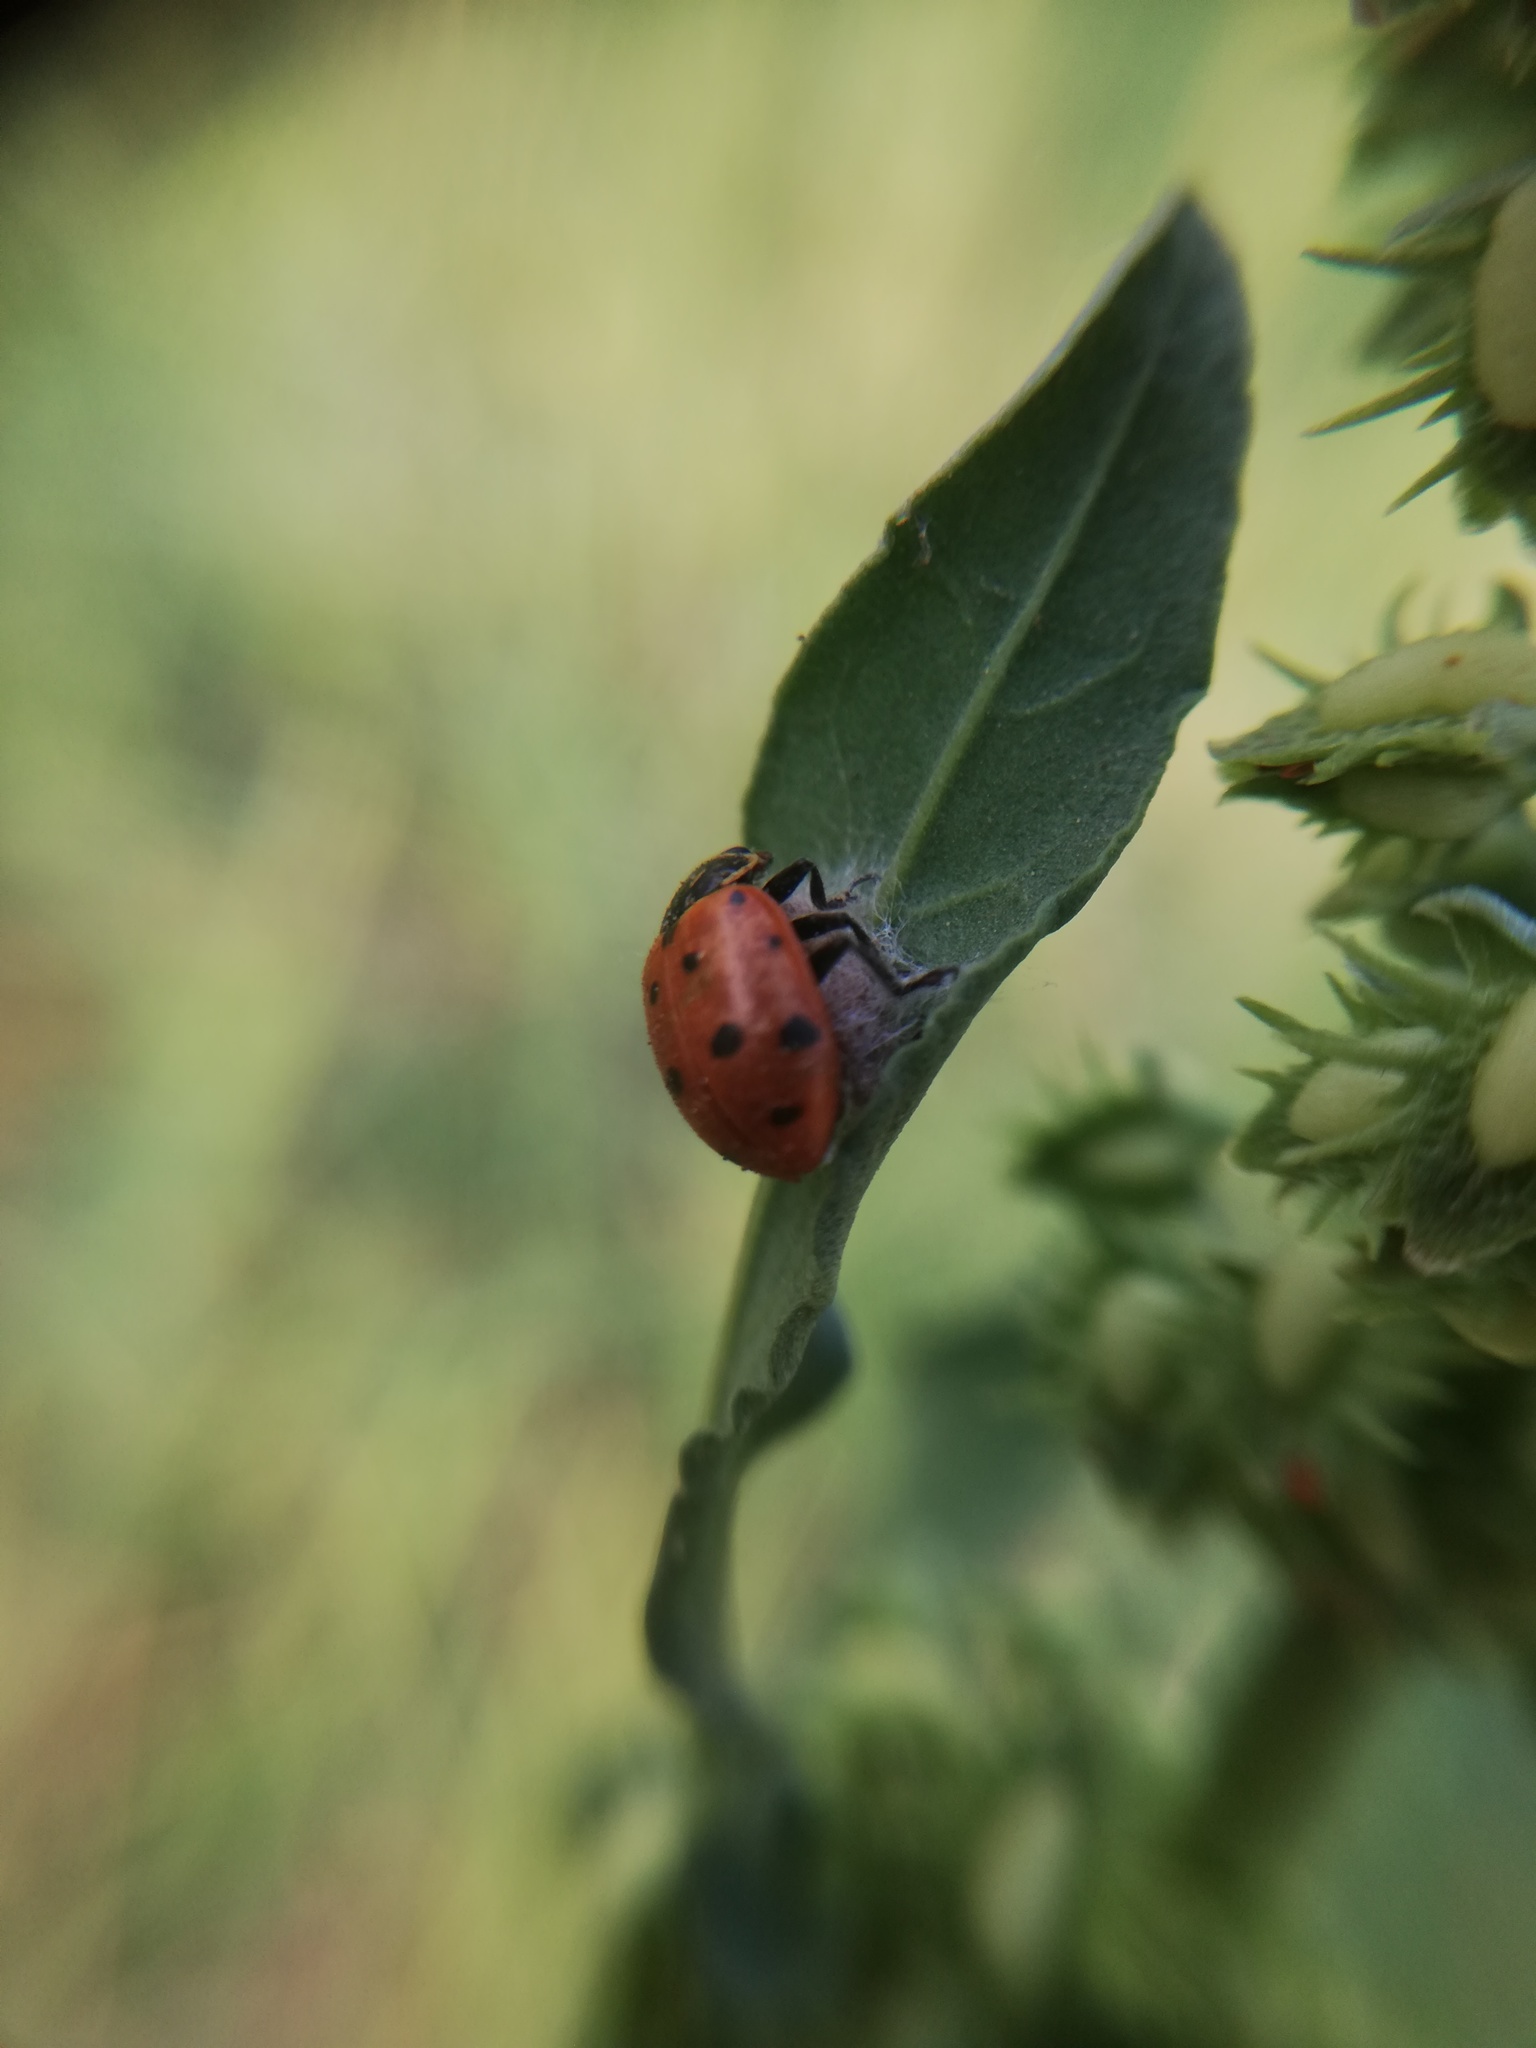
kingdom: Animalia
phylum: Arthropoda
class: Insecta
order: Coleoptera
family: Coccinellidae
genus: Hippodamia
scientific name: Hippodamia convergens
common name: Convergent lady beetle
